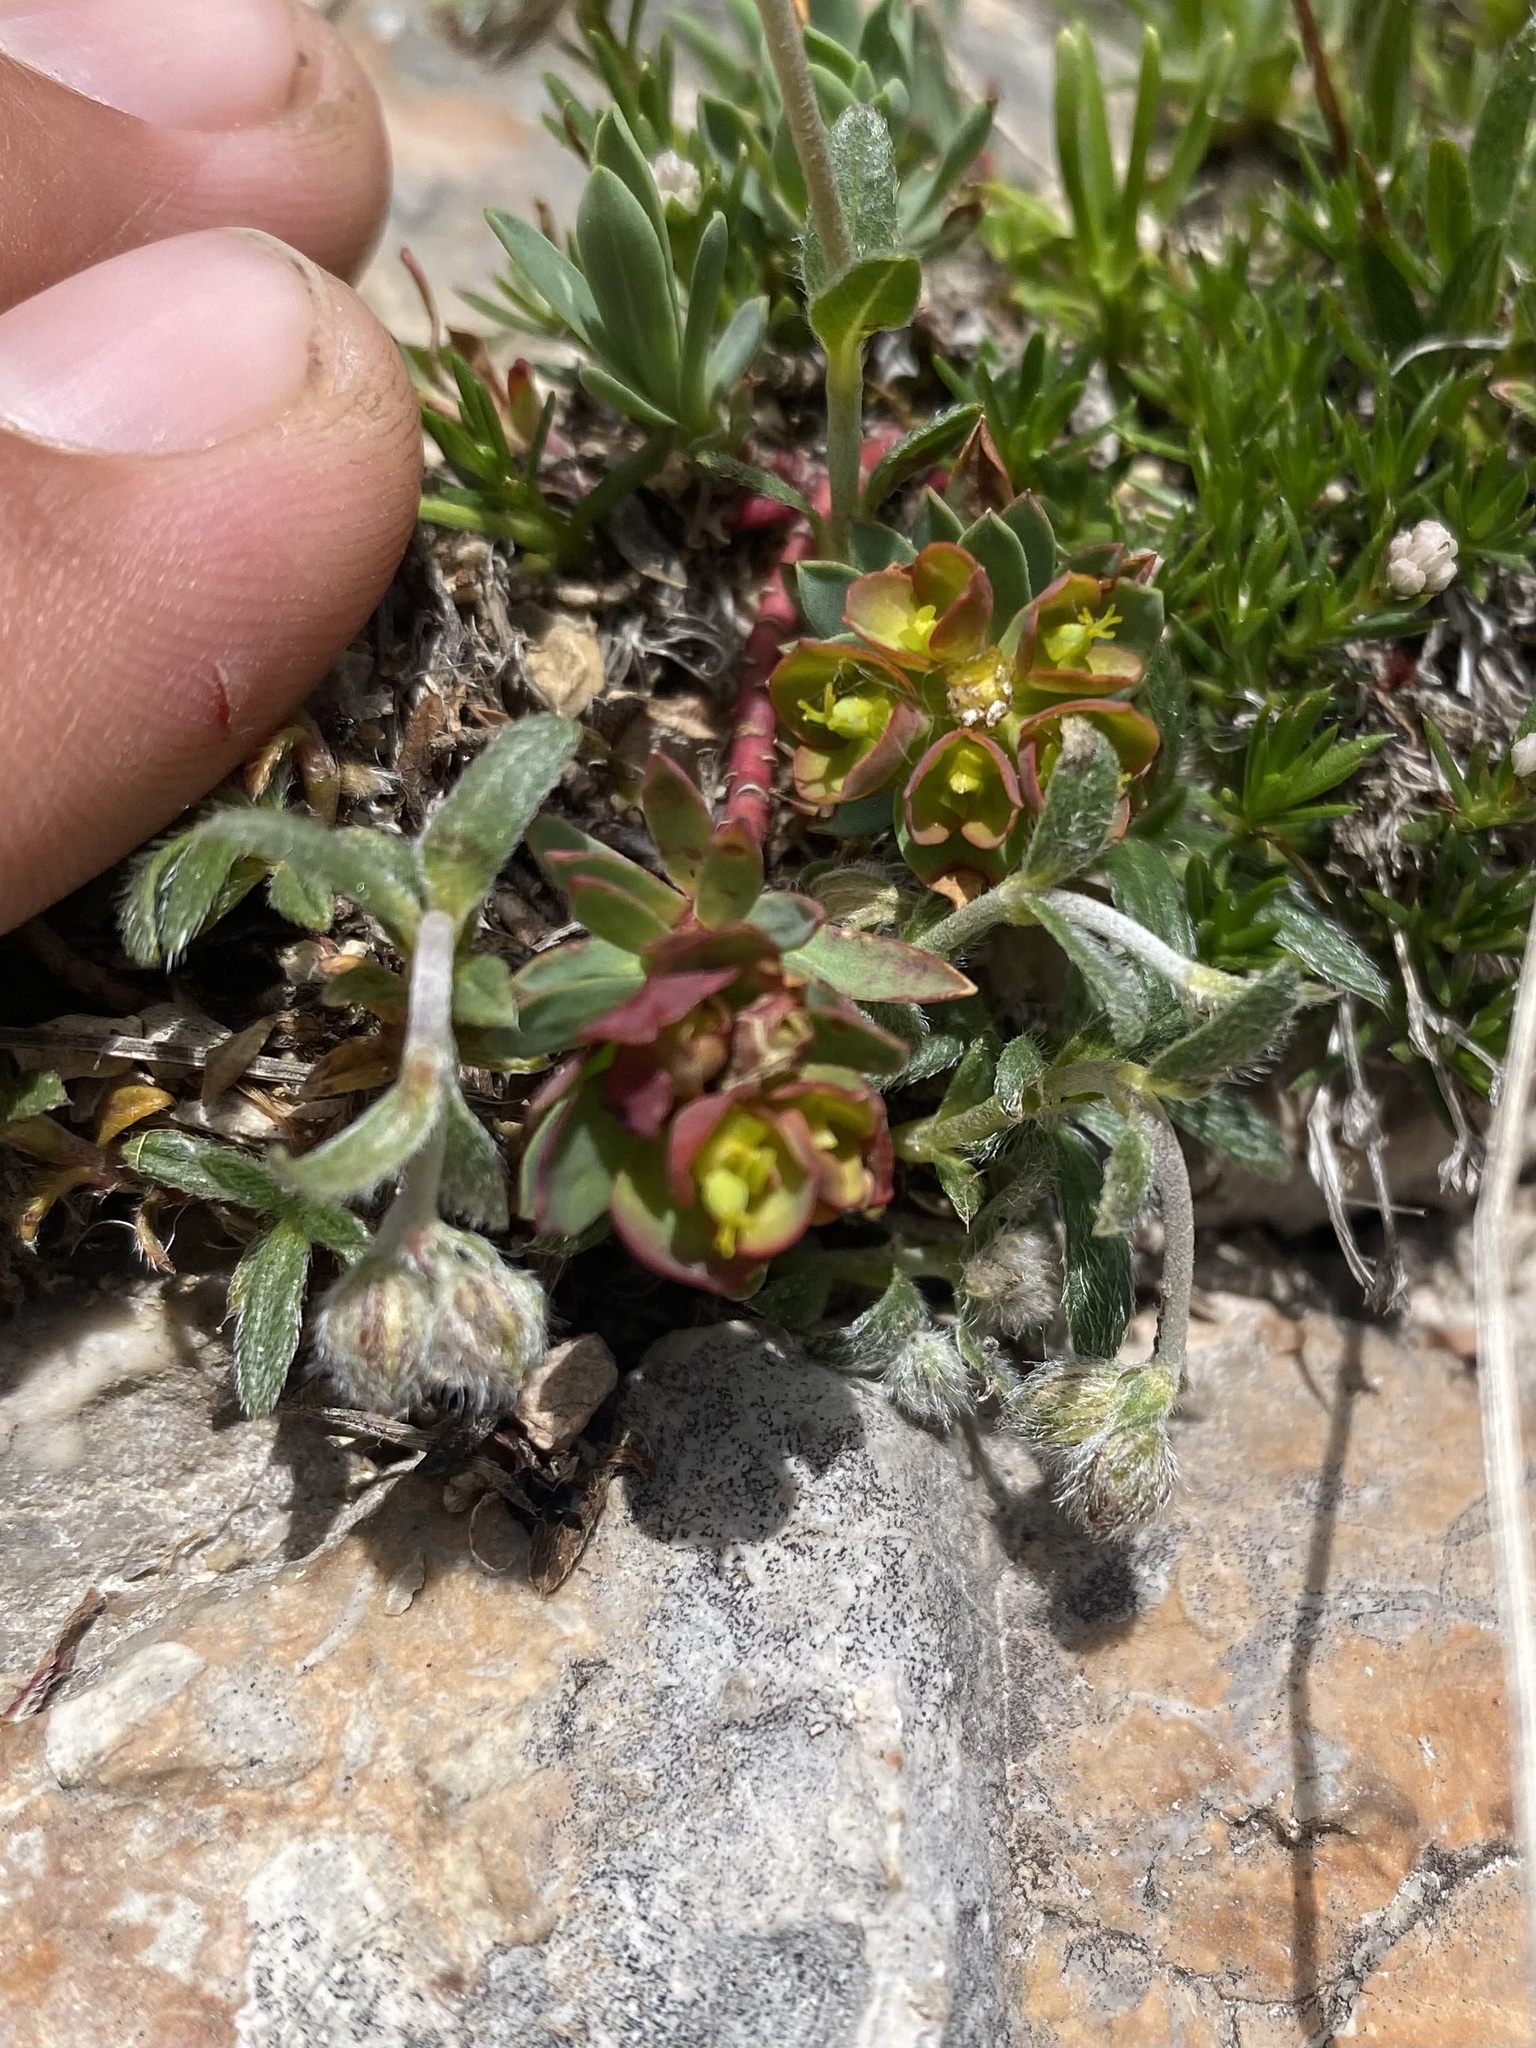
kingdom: Plantae
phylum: Tracheophyta
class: Magnoliopsida
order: Malpighiales
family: Euphorbiaceae
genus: Euphorbia
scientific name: Euphorbia petrophila
